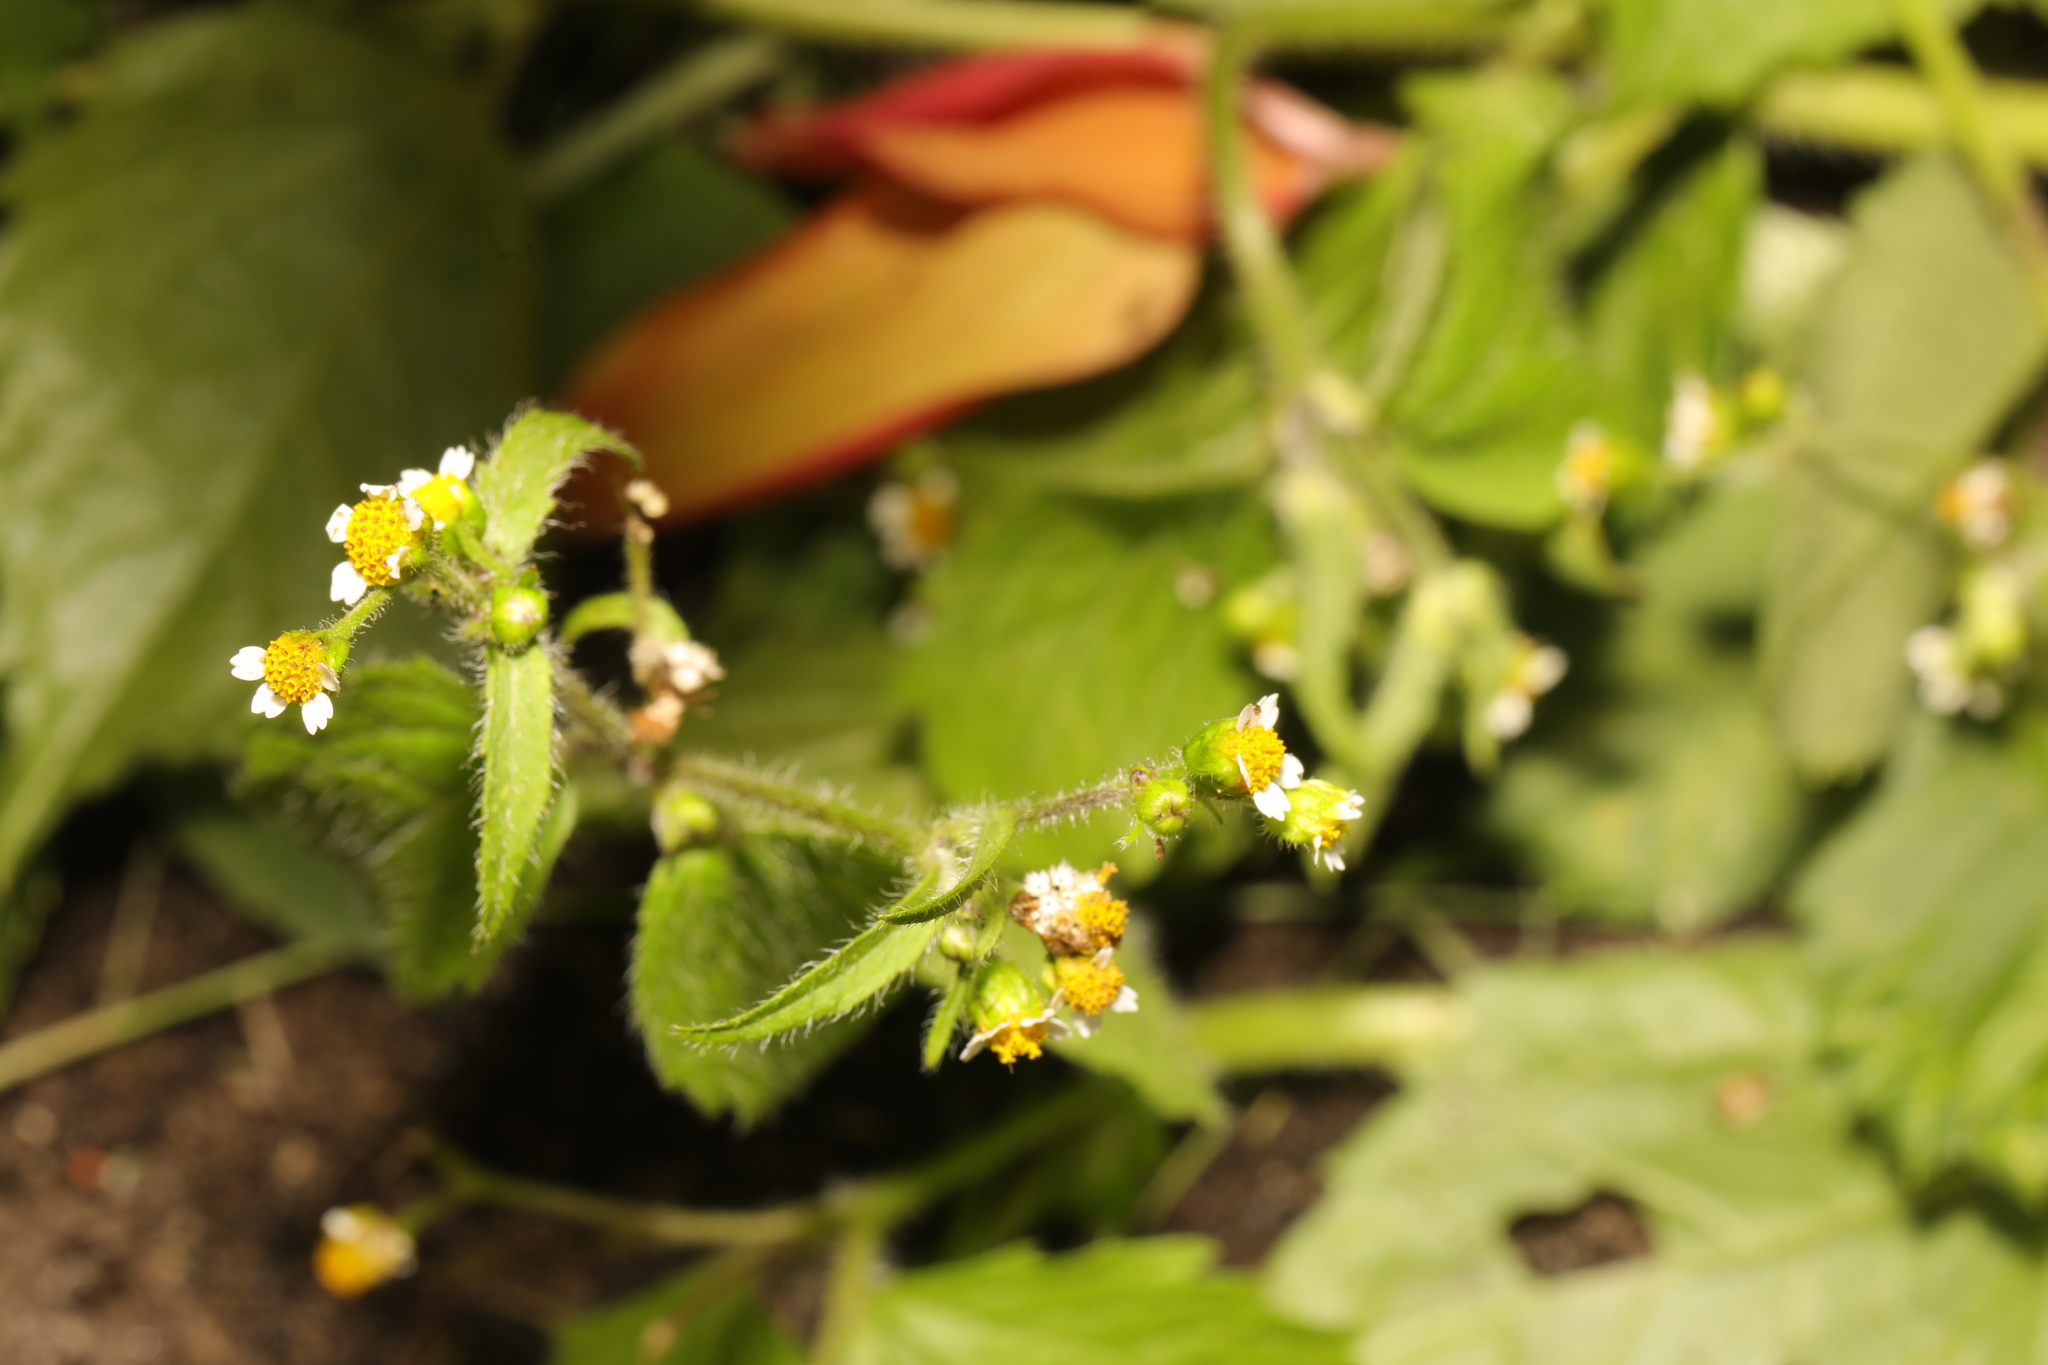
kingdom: Plantae
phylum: Tracheophyta
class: Magnoliopsida
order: Asterales
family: Asteraceae
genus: Galinsoga
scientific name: Galinsoga quadriradiata
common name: Shaggy soldier
